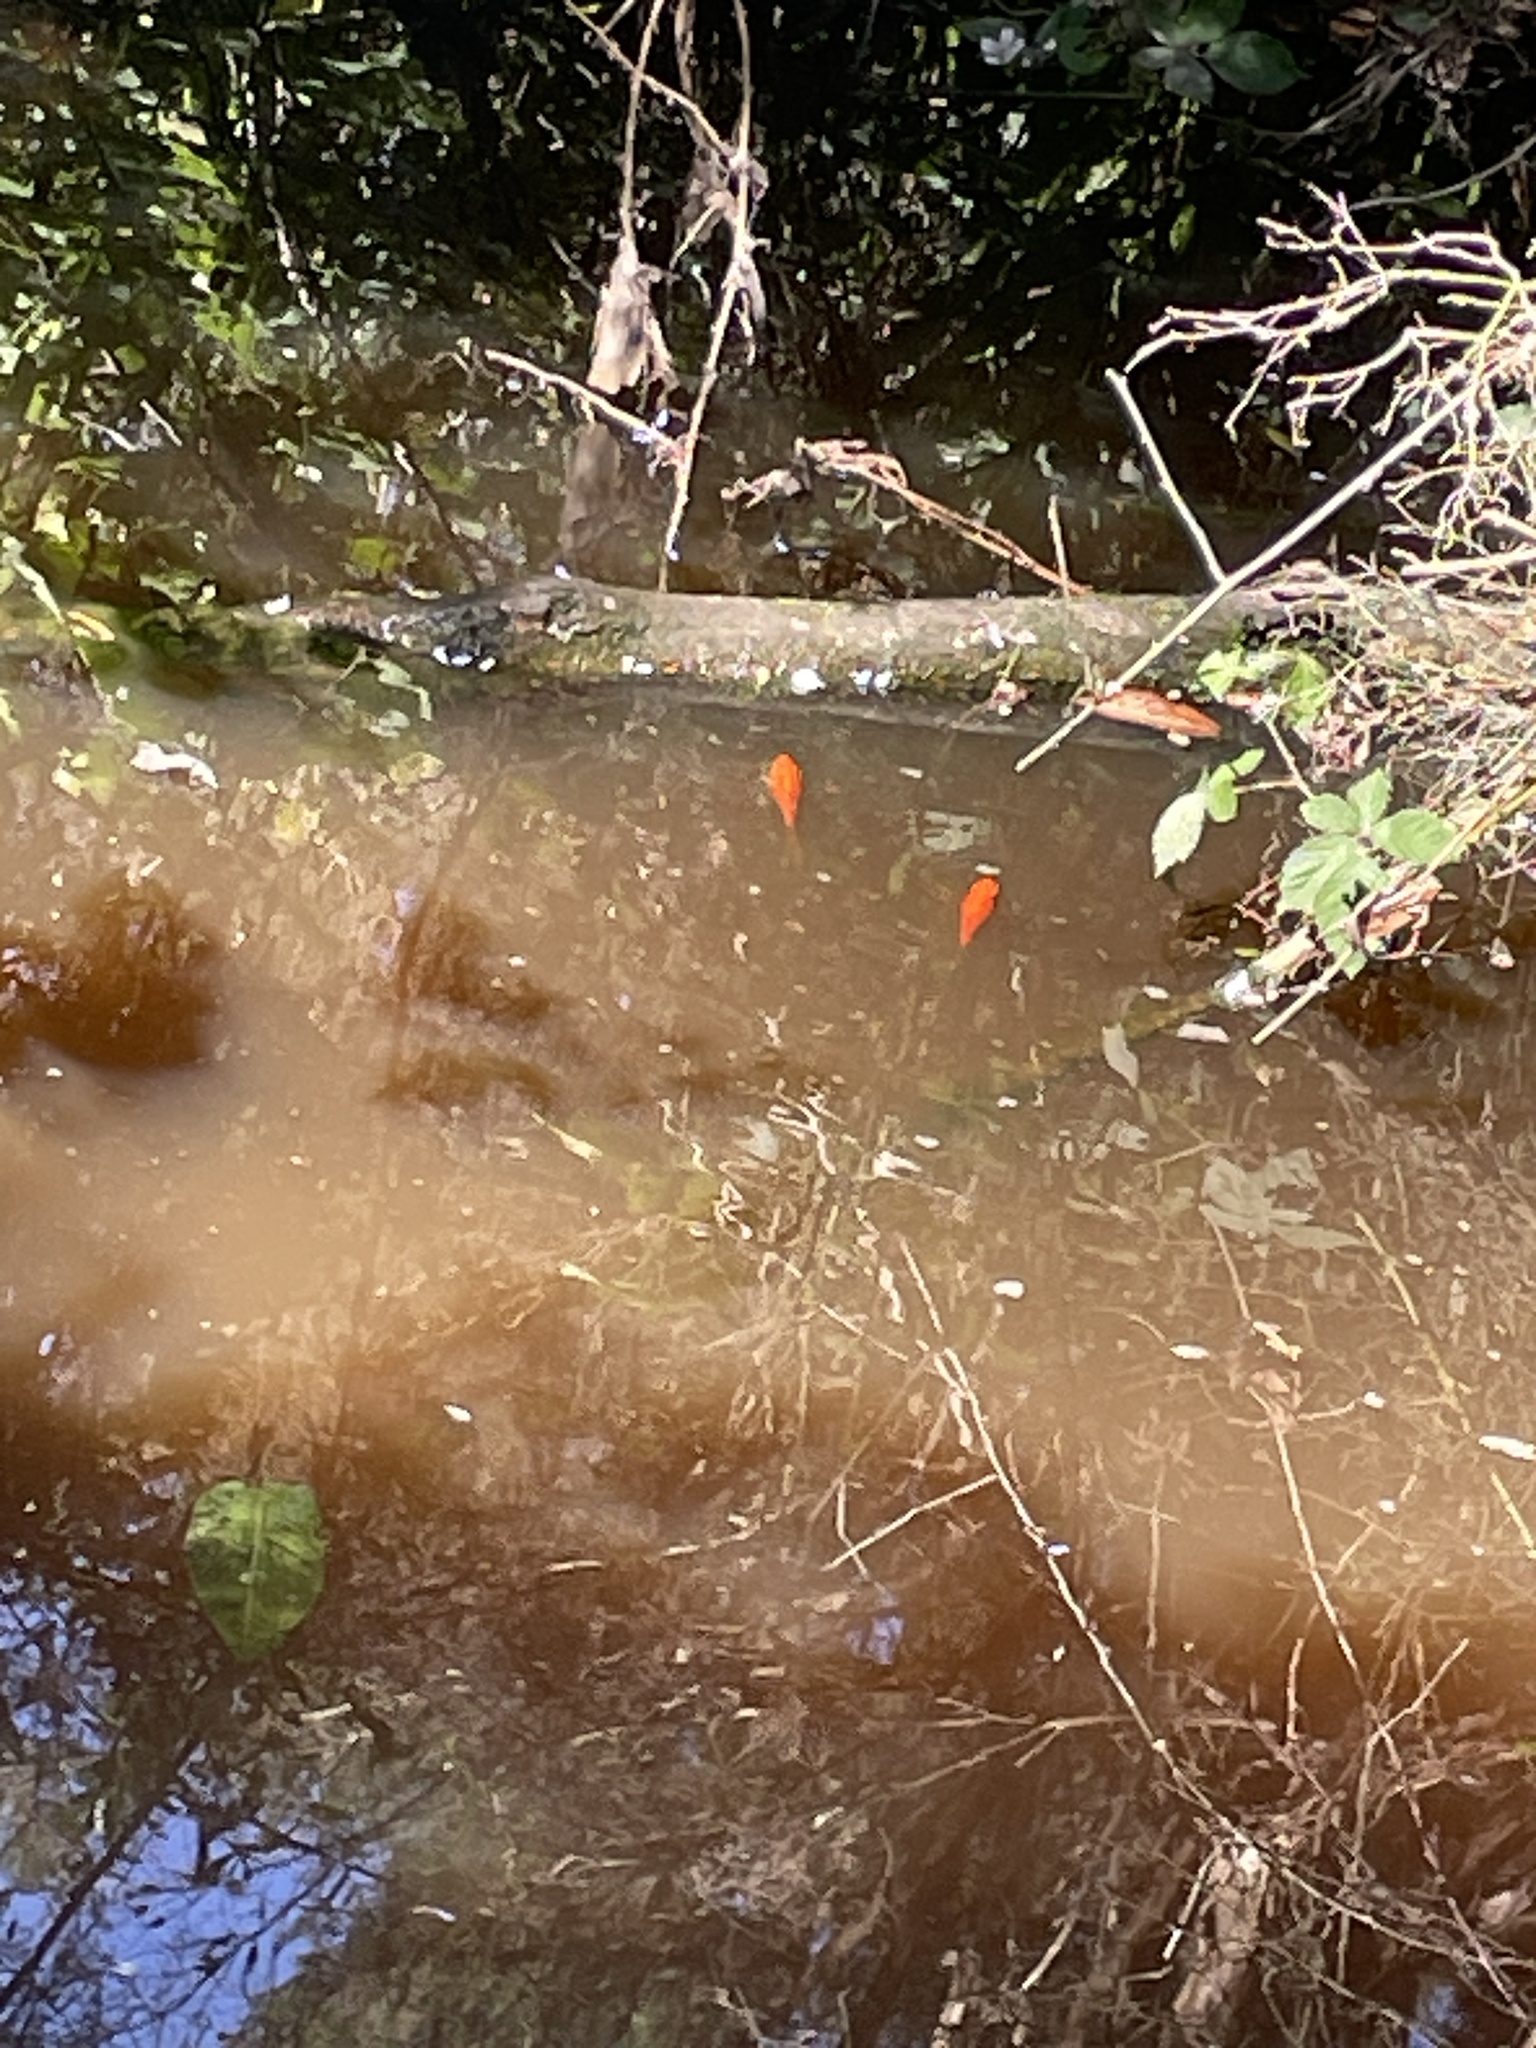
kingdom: Animalia
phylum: Chordata
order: Cypriniformes
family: Cyprinidae
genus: Carassius
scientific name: Carassius auratus
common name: Goldfish
